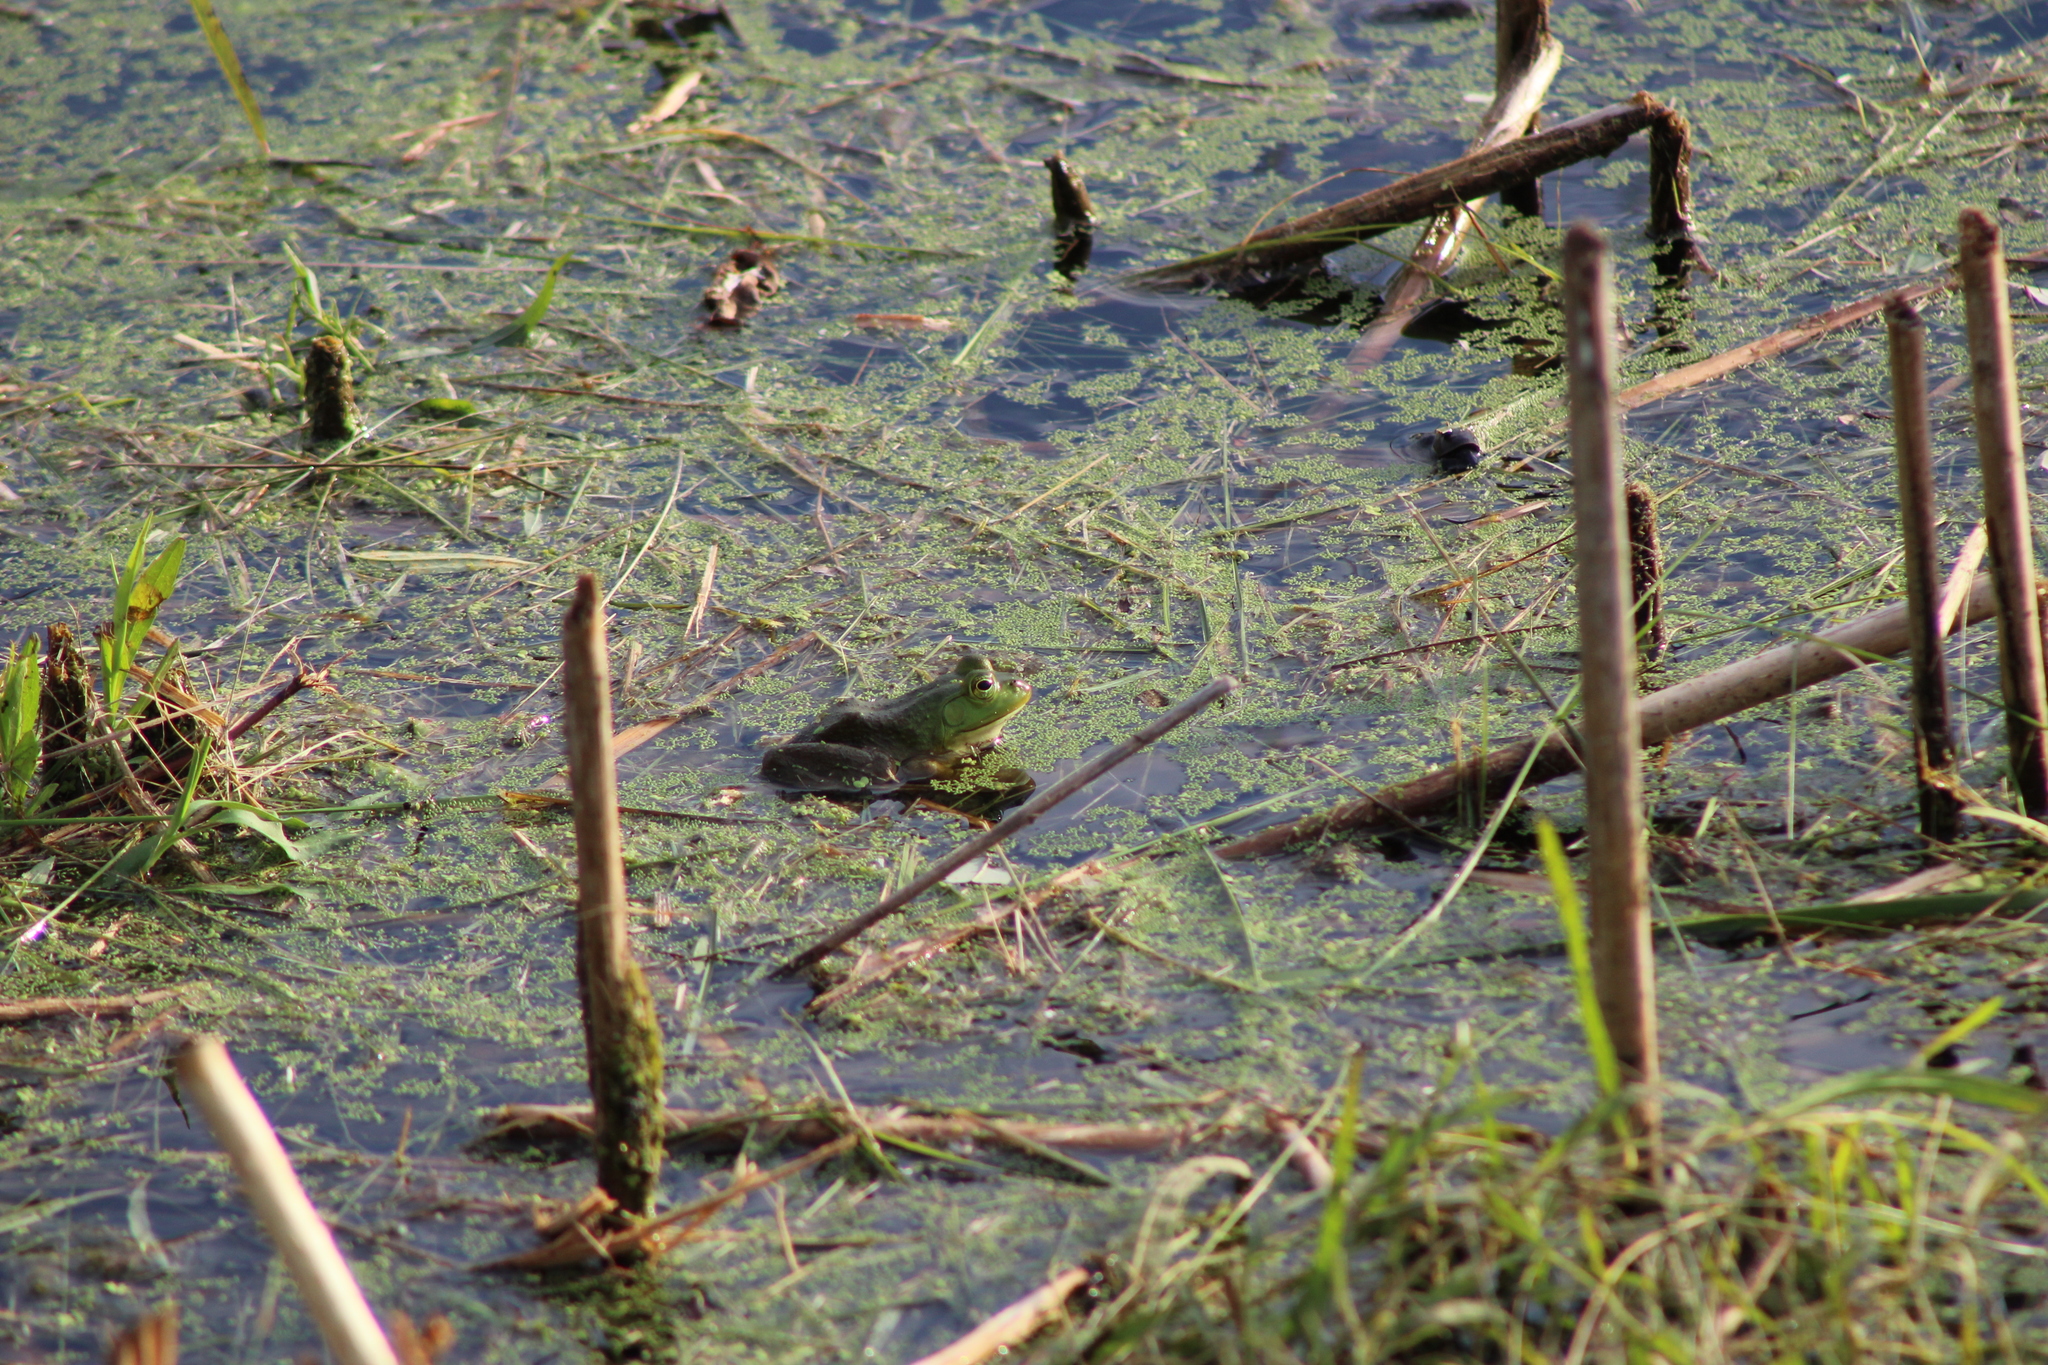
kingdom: Animalia
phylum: Chordata
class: Amphibia
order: Anura
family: Ranidae
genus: Lithobates
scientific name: Lithobates catesbeianus
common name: American bullfrog
